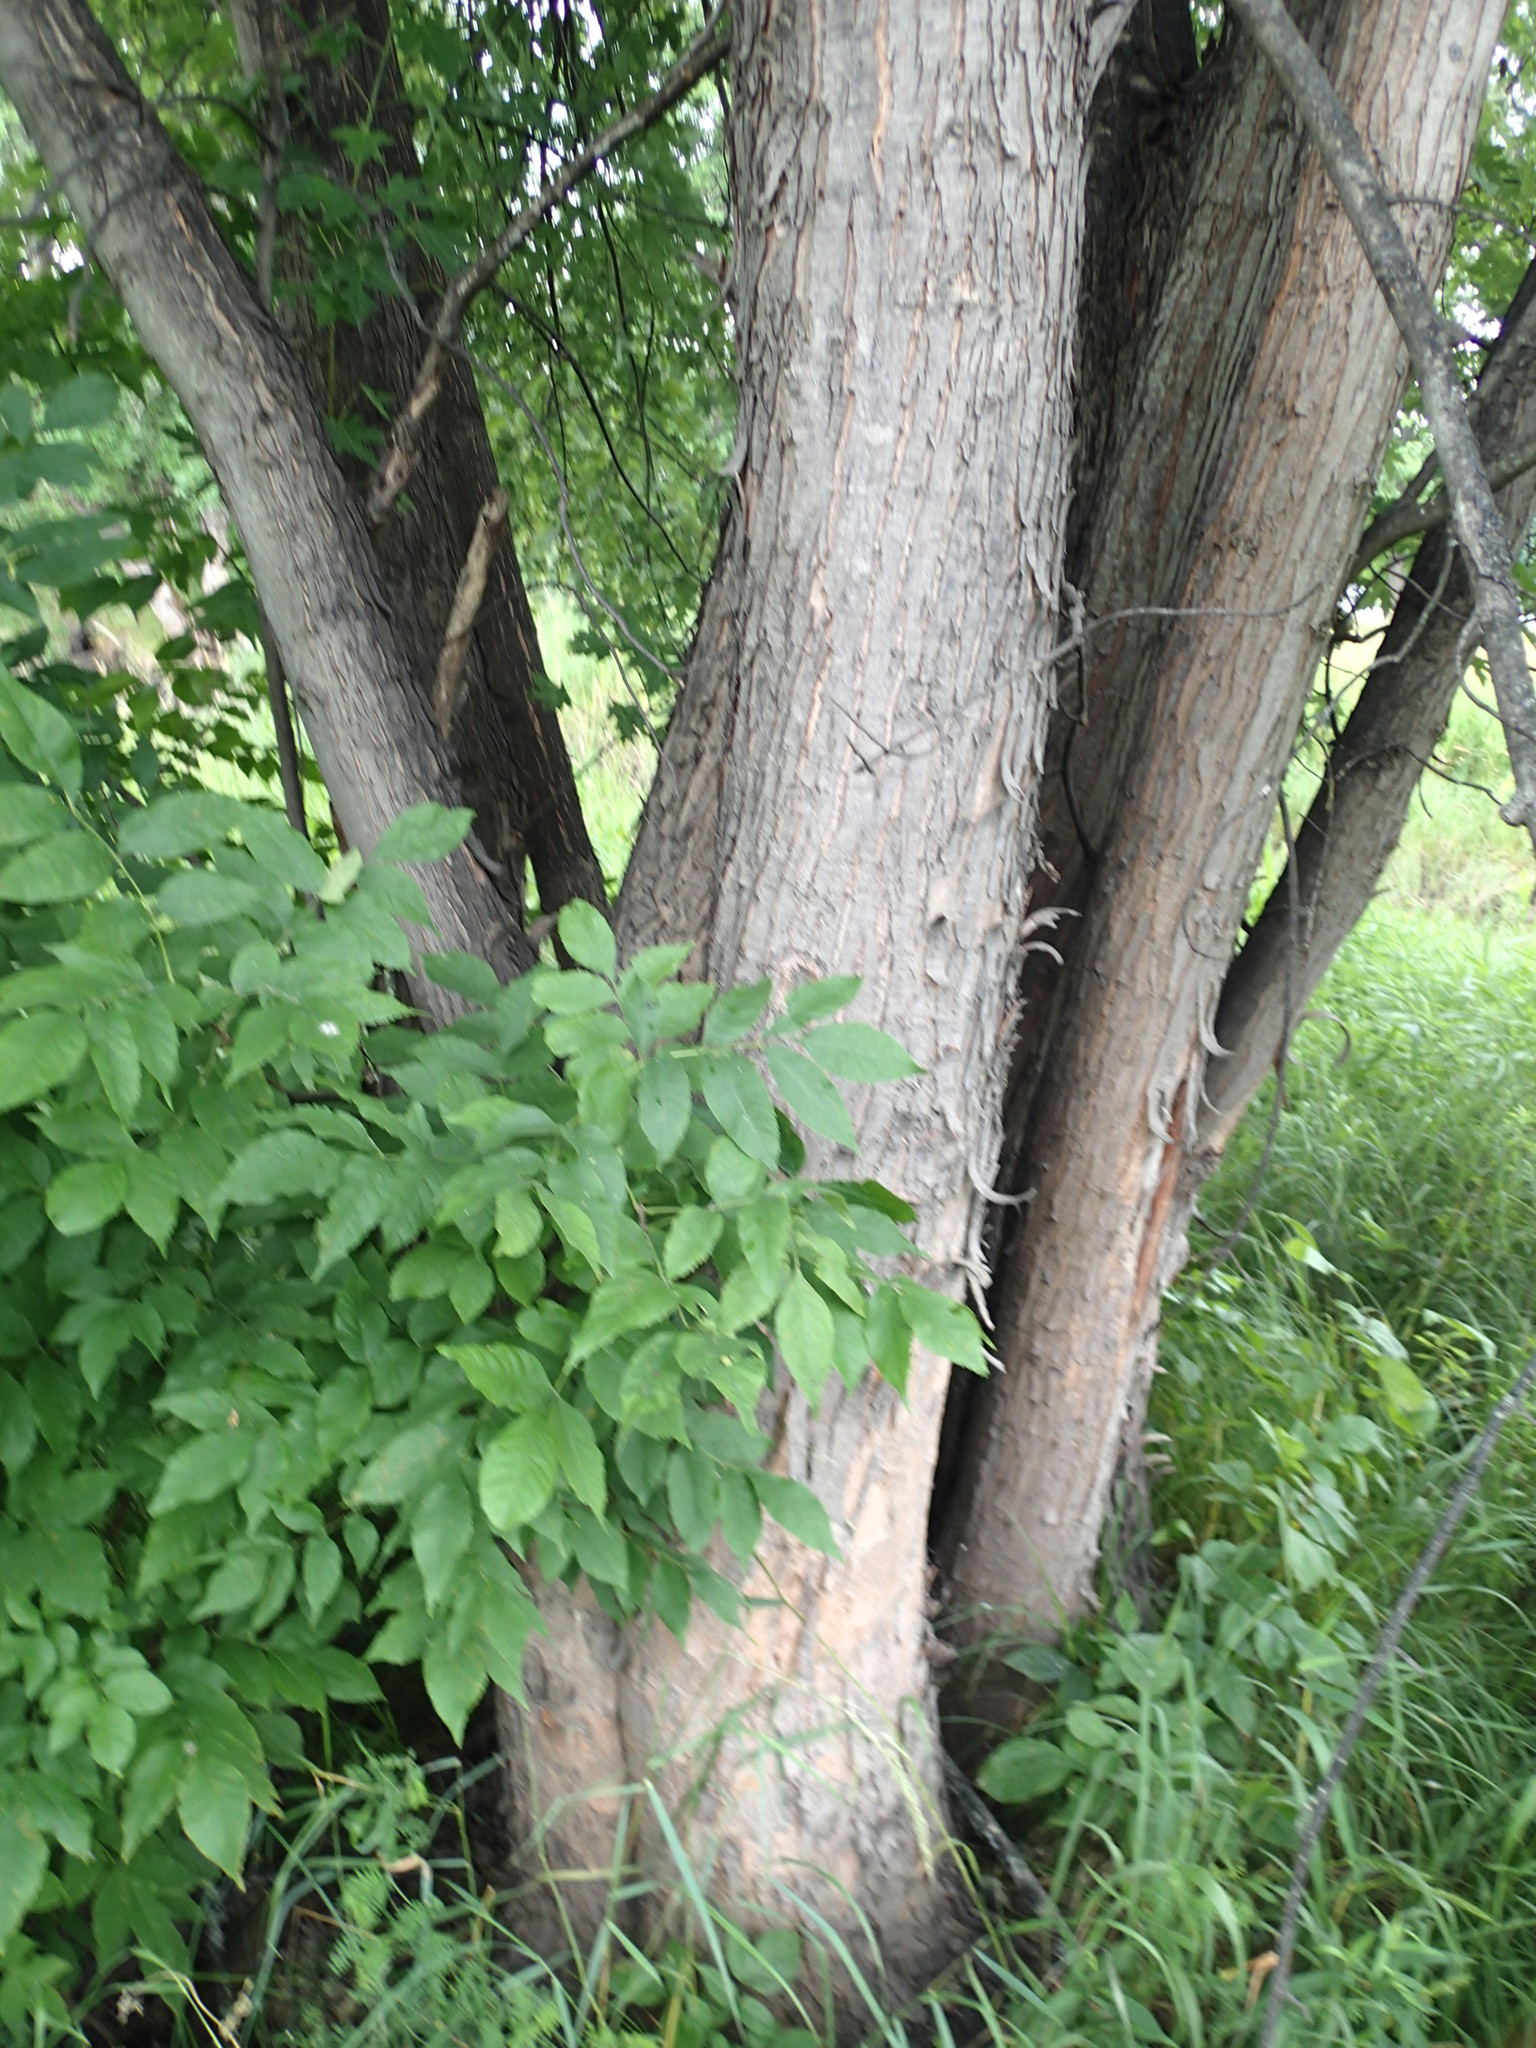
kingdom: Plantae
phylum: Tracheophyta
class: Magnoliopsida
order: Sapindales
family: Sapindaceae
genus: Acer
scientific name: Acer saccharinum
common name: Silver maple
